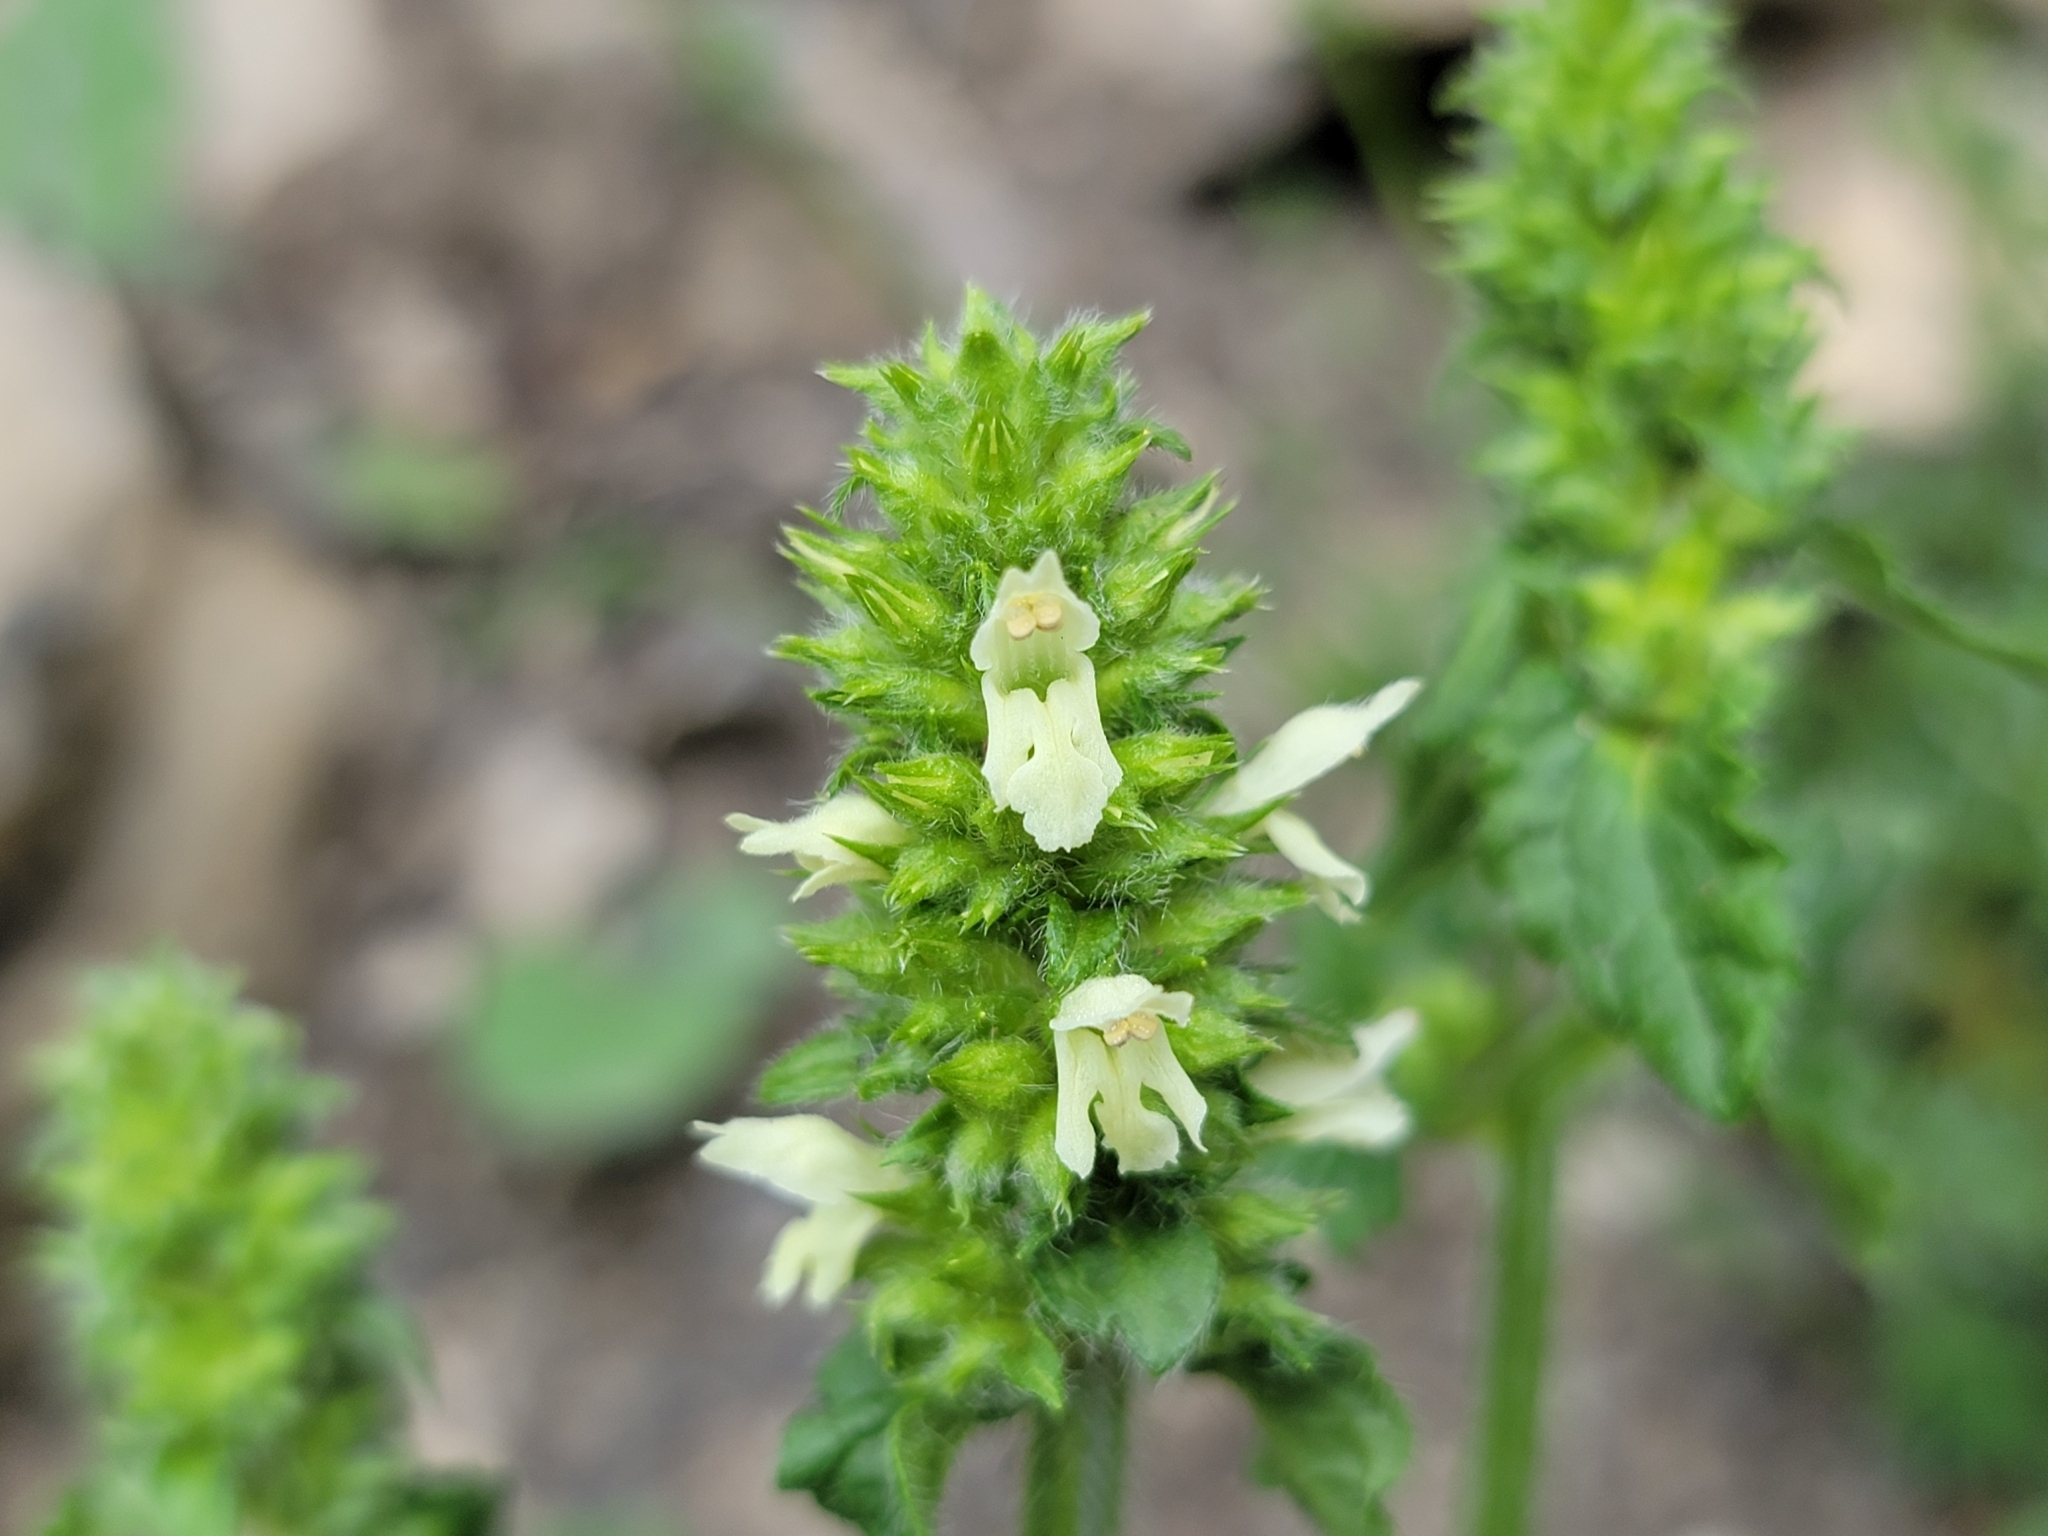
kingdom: Plantae
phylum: Tracheophyta
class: Magnoliopsida
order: Lamiales
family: Lamiaceae
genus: Betonica
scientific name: Betonica alopecuros
